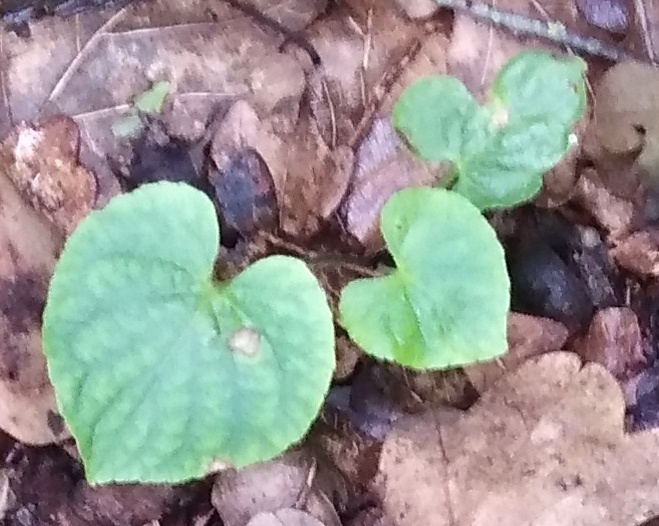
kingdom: Plantae
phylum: Tracheophyta
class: Magnoliopsida
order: Malpighiales
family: Violaceae
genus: Viola
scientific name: Viola mirabilis
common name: Wonder violet
